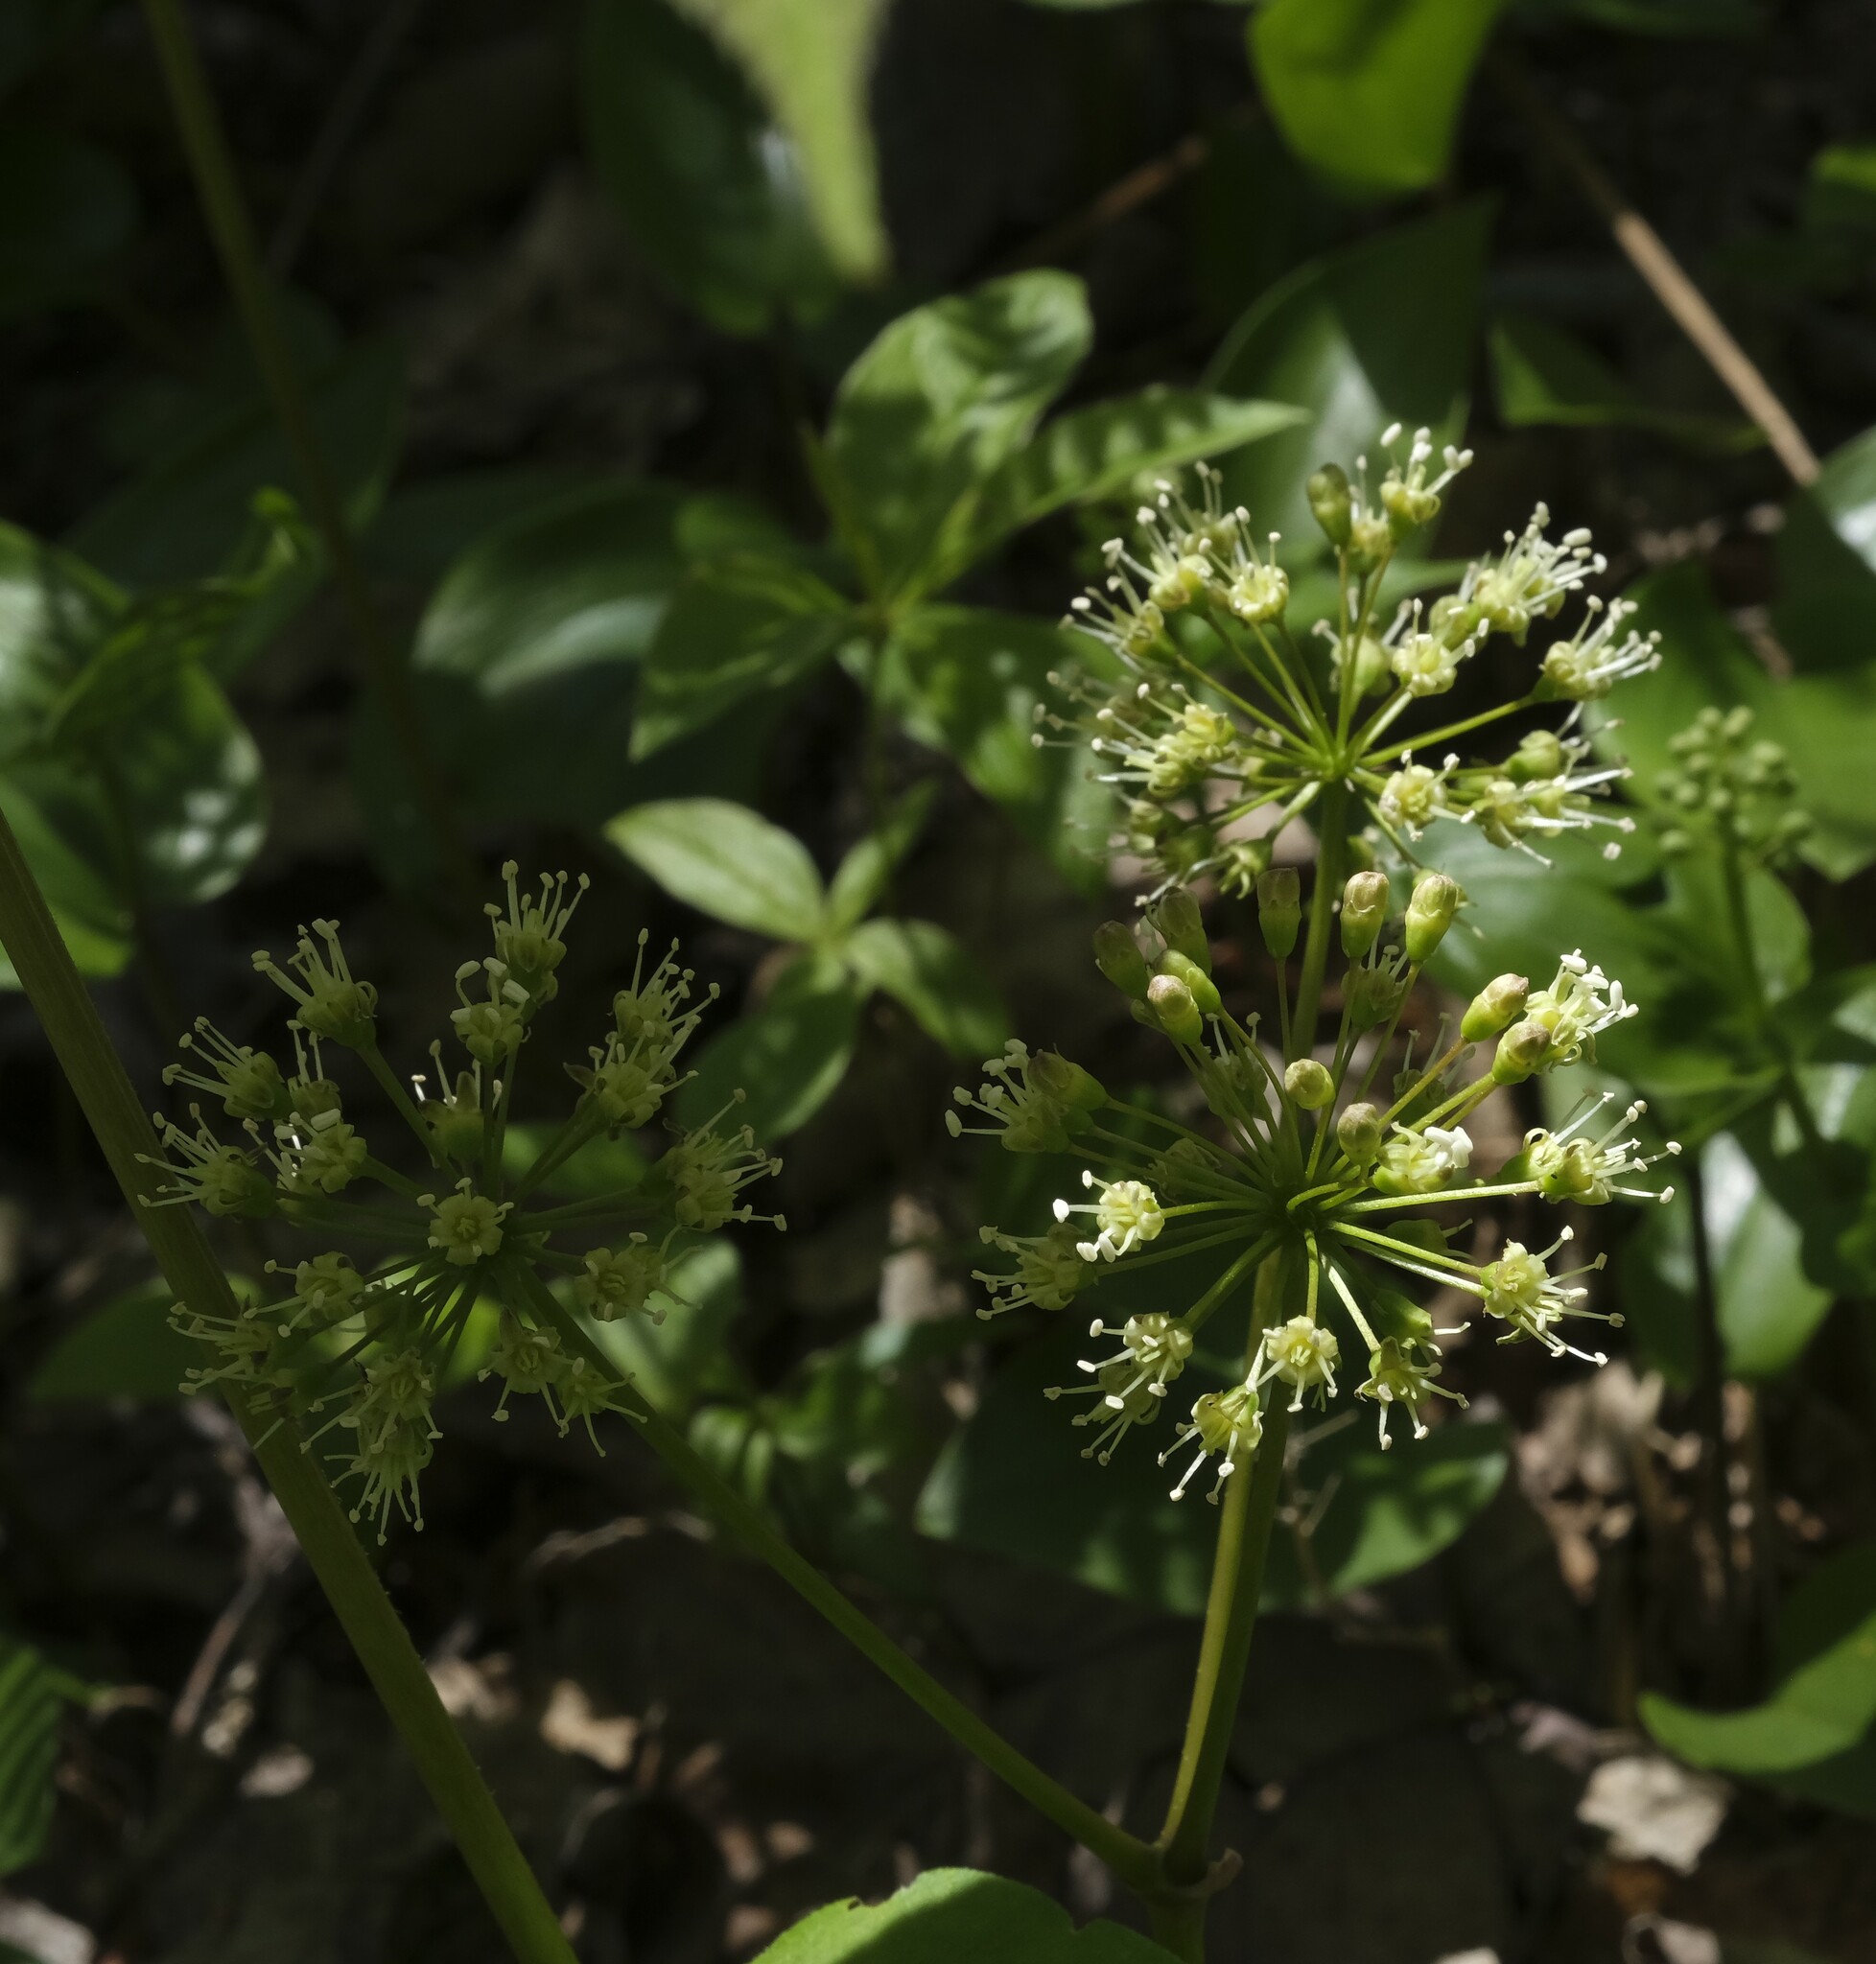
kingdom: Plantae
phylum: Tracheophyta
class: Magnoliopsida
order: Apiales
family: Araliaceae
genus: Aralia
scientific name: Aralia nudicaulis
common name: Wild sarsaparilla
